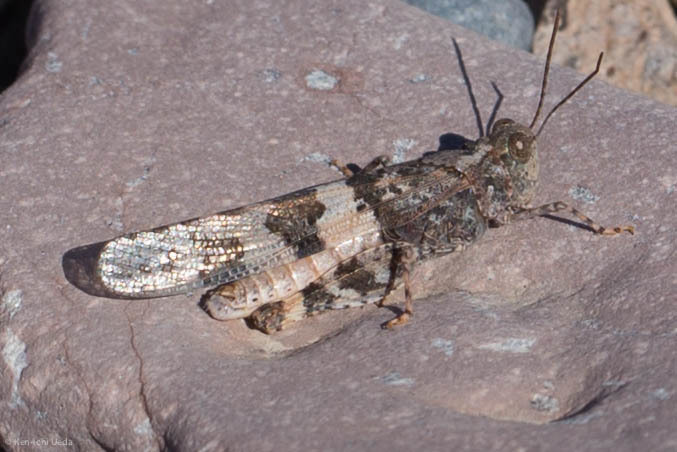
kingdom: Animalia
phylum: Arthropoda
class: Insecta
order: Orthoptera
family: Acrididae
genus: Trimerotropis
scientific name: Trimerotropis pallidipennis
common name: Pallid-winged grasshopper
